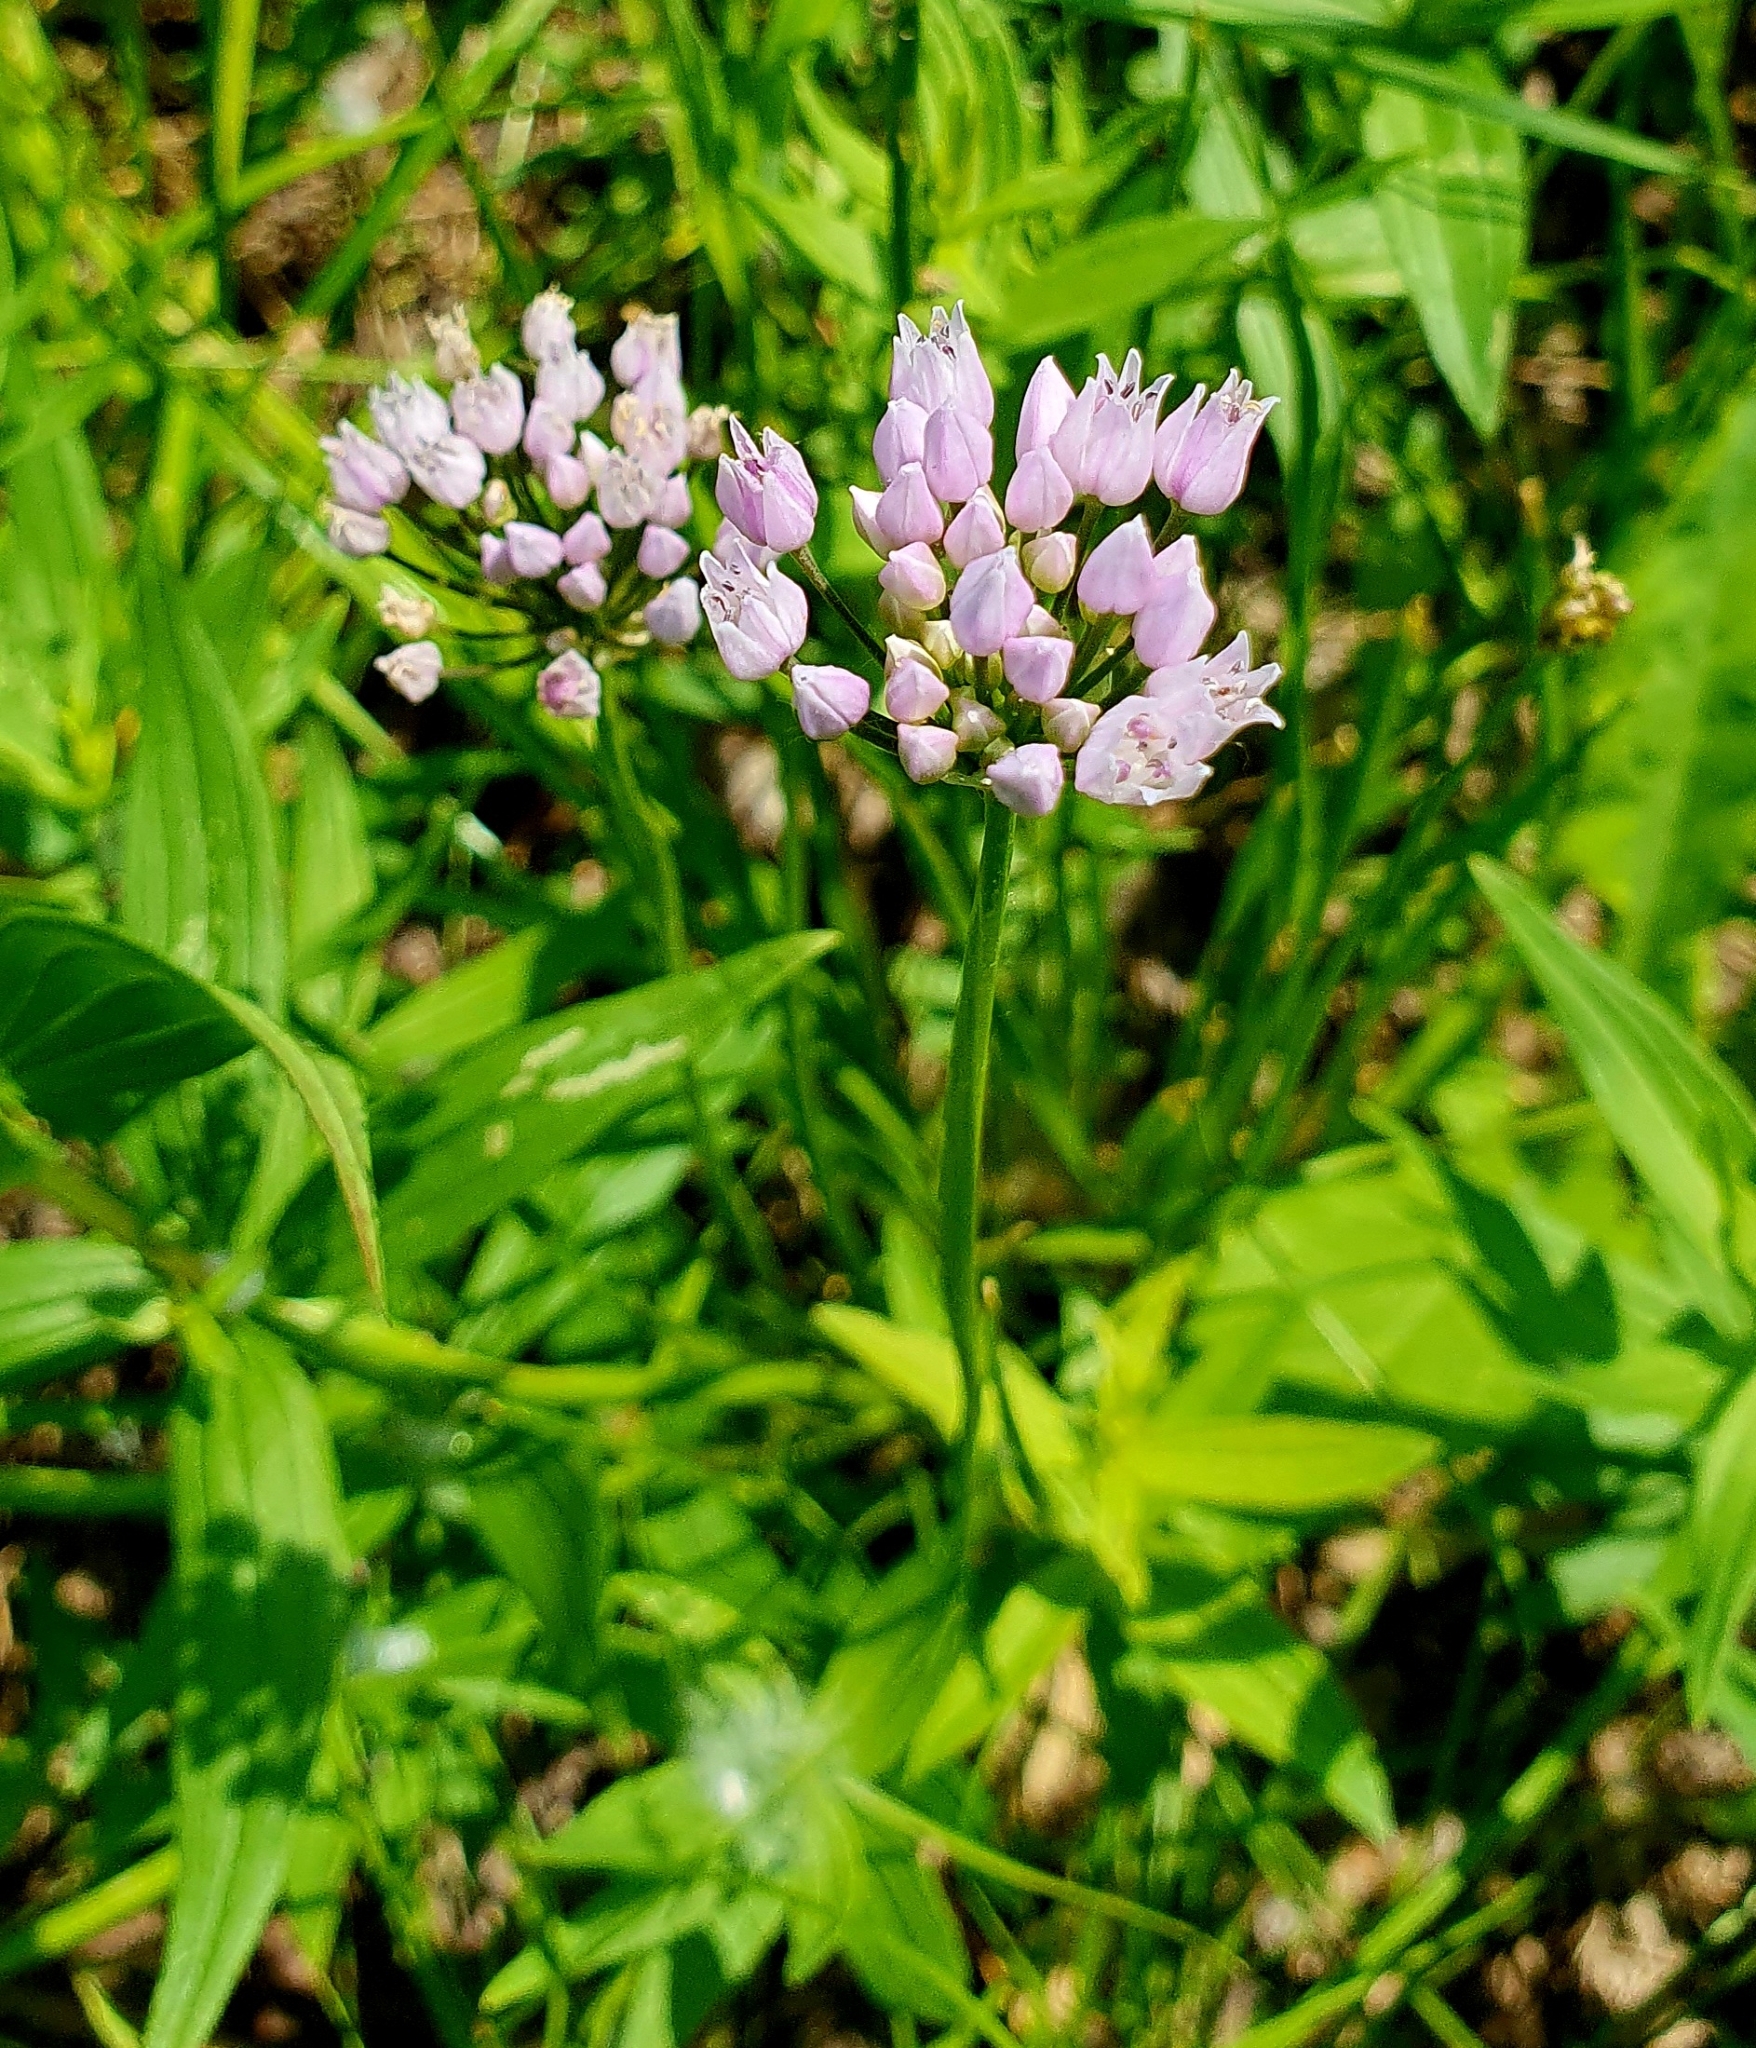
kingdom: Plantae
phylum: Tracheophyta
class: Liliopsida
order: Asparagales
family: Amaryllidaceae
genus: Allium
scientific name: Allium angulosum
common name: Mouse garlic
